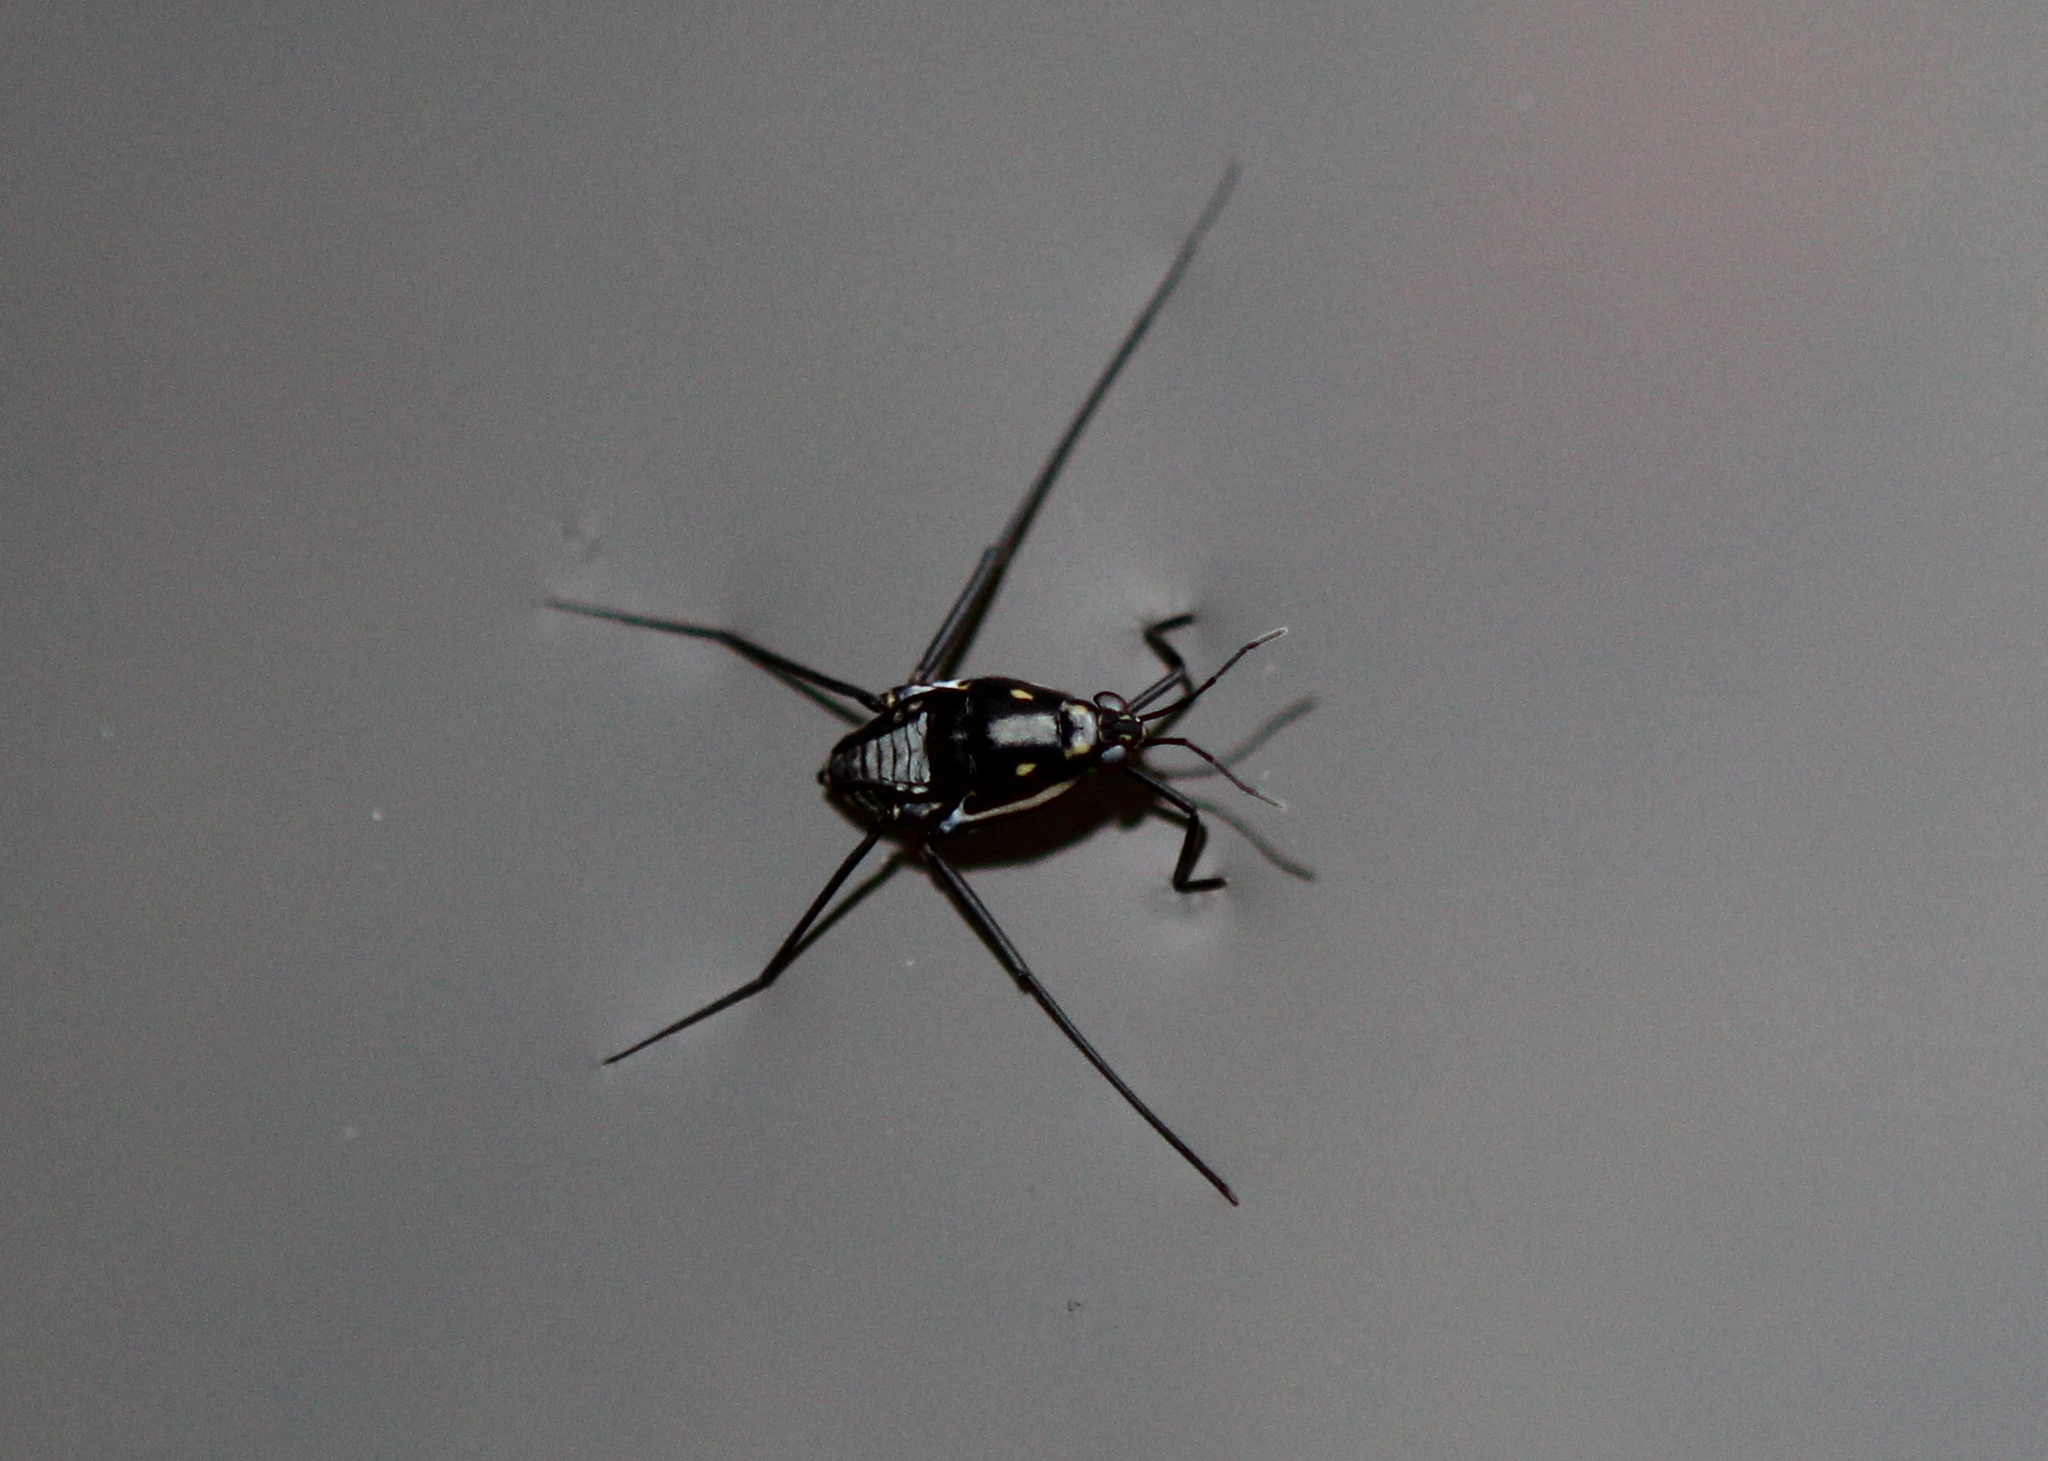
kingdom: Animalia
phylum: Arthropoda
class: Insecta
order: Hemiptera
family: Gerridae
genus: Trepobates
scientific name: Trepobates subnitidus
